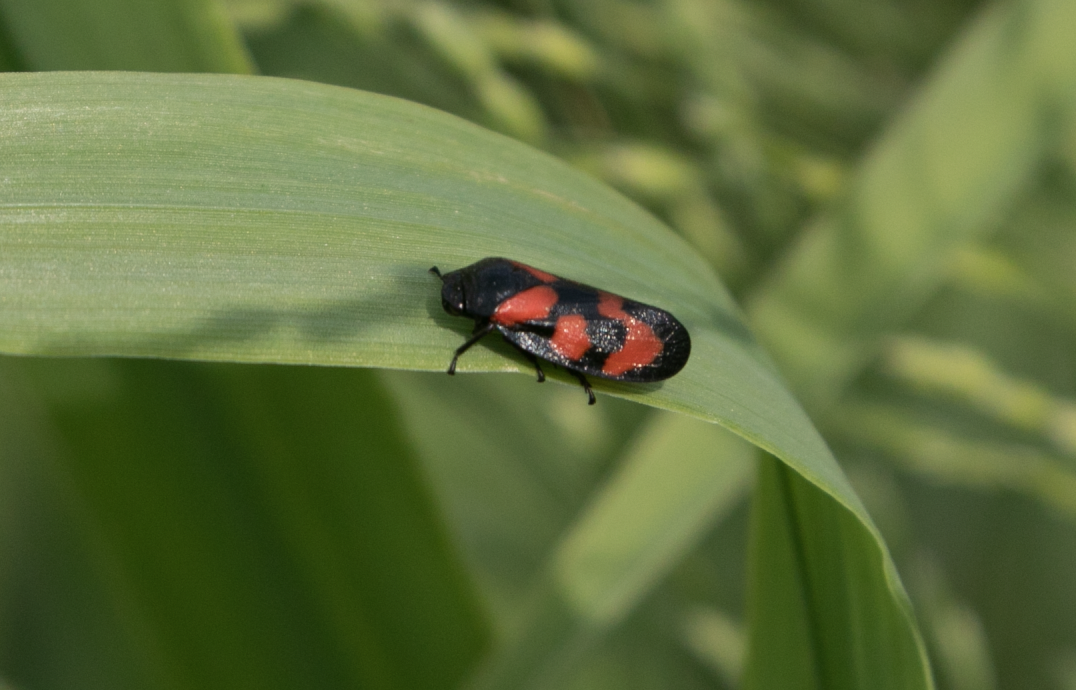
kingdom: Animalia
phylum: Arthropoda
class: Insecta
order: Hemiptera
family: Cercopidae
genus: Cercopis
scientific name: Cercopis vulnerata
